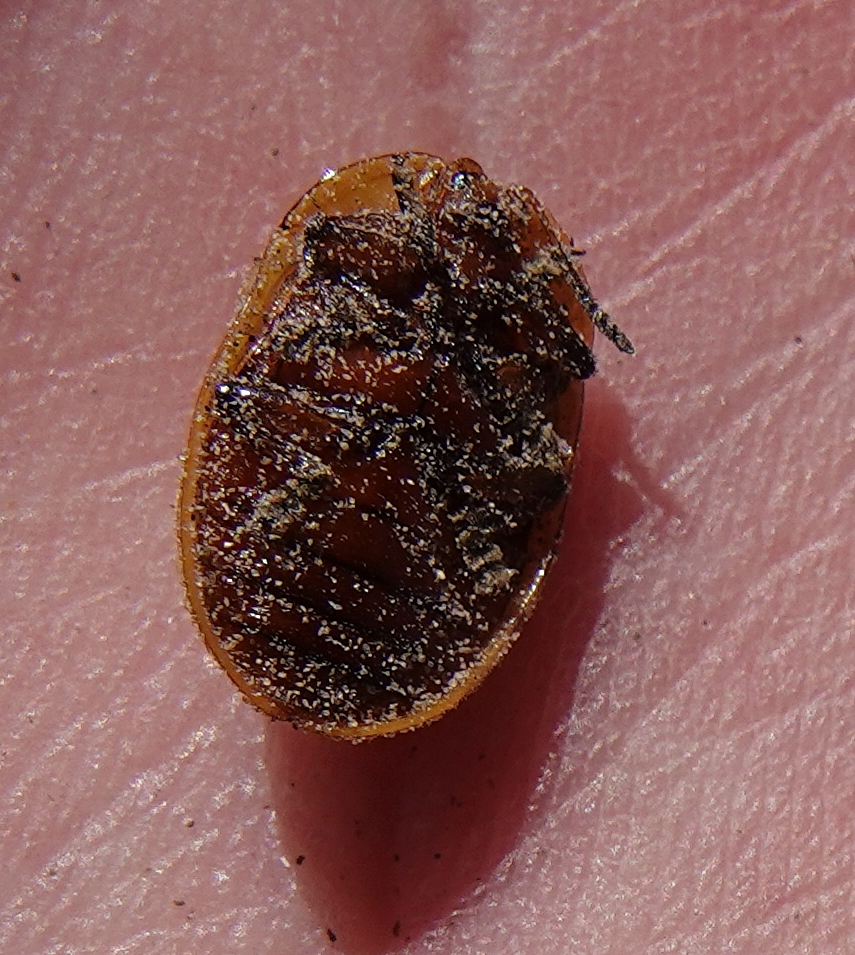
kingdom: Animalia
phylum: Arthropoda
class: Insecta
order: Coleoptera
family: Chrysomelidae
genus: Chelymorpha
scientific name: Chelymorpha cassidea
